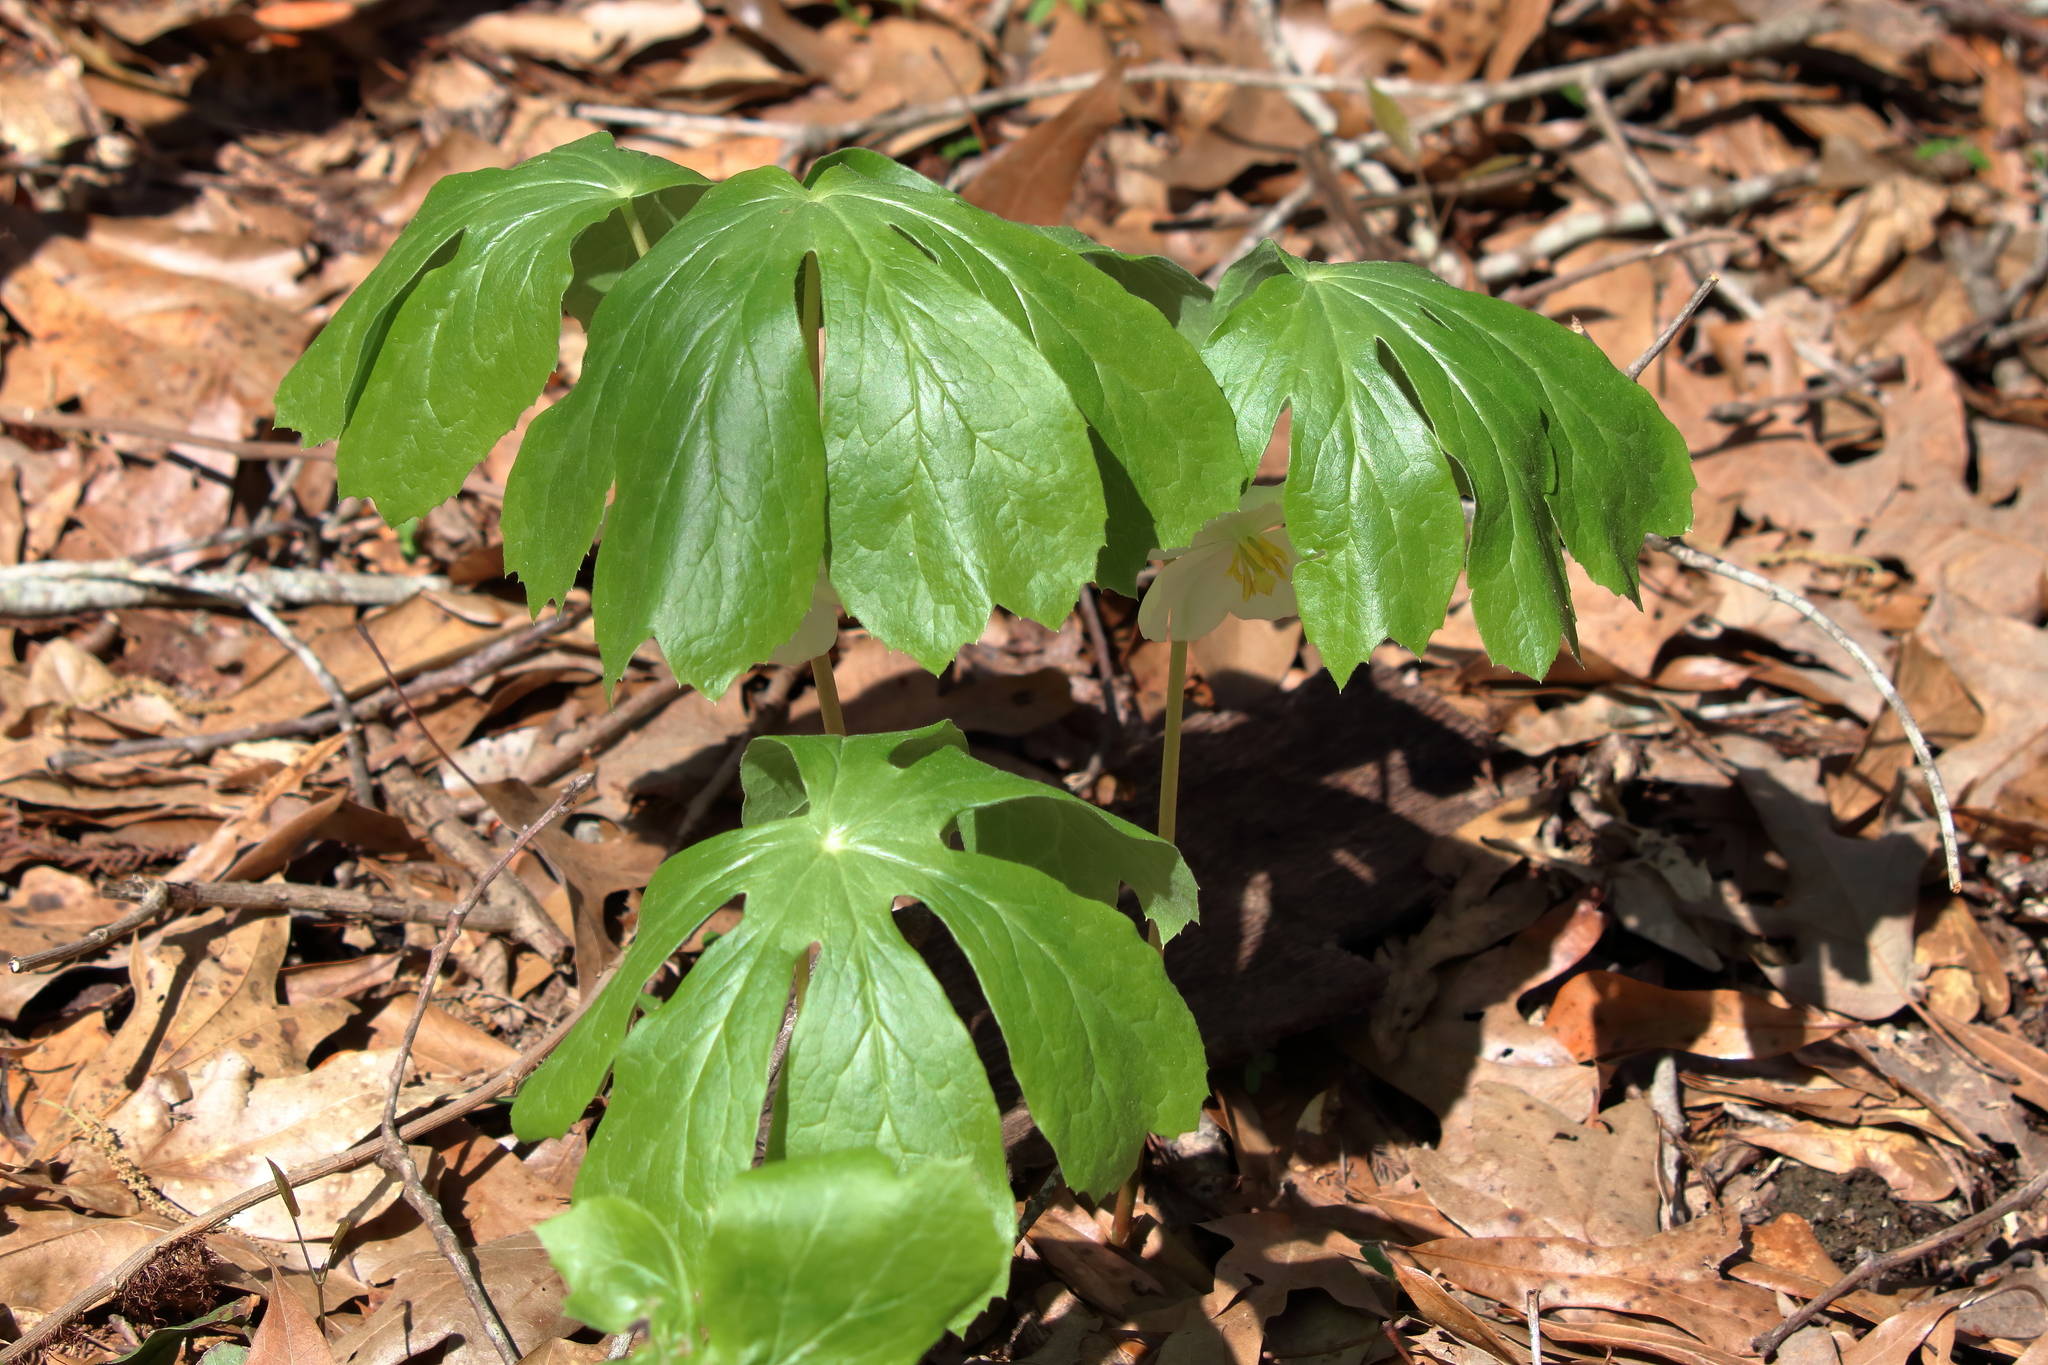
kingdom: Plantae
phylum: Tracheophyta
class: Magnoliopsida
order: Ranunculales
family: Berberidaceae
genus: Podophyllum
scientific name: Podophyllum peltatum
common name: Wild mandrake
